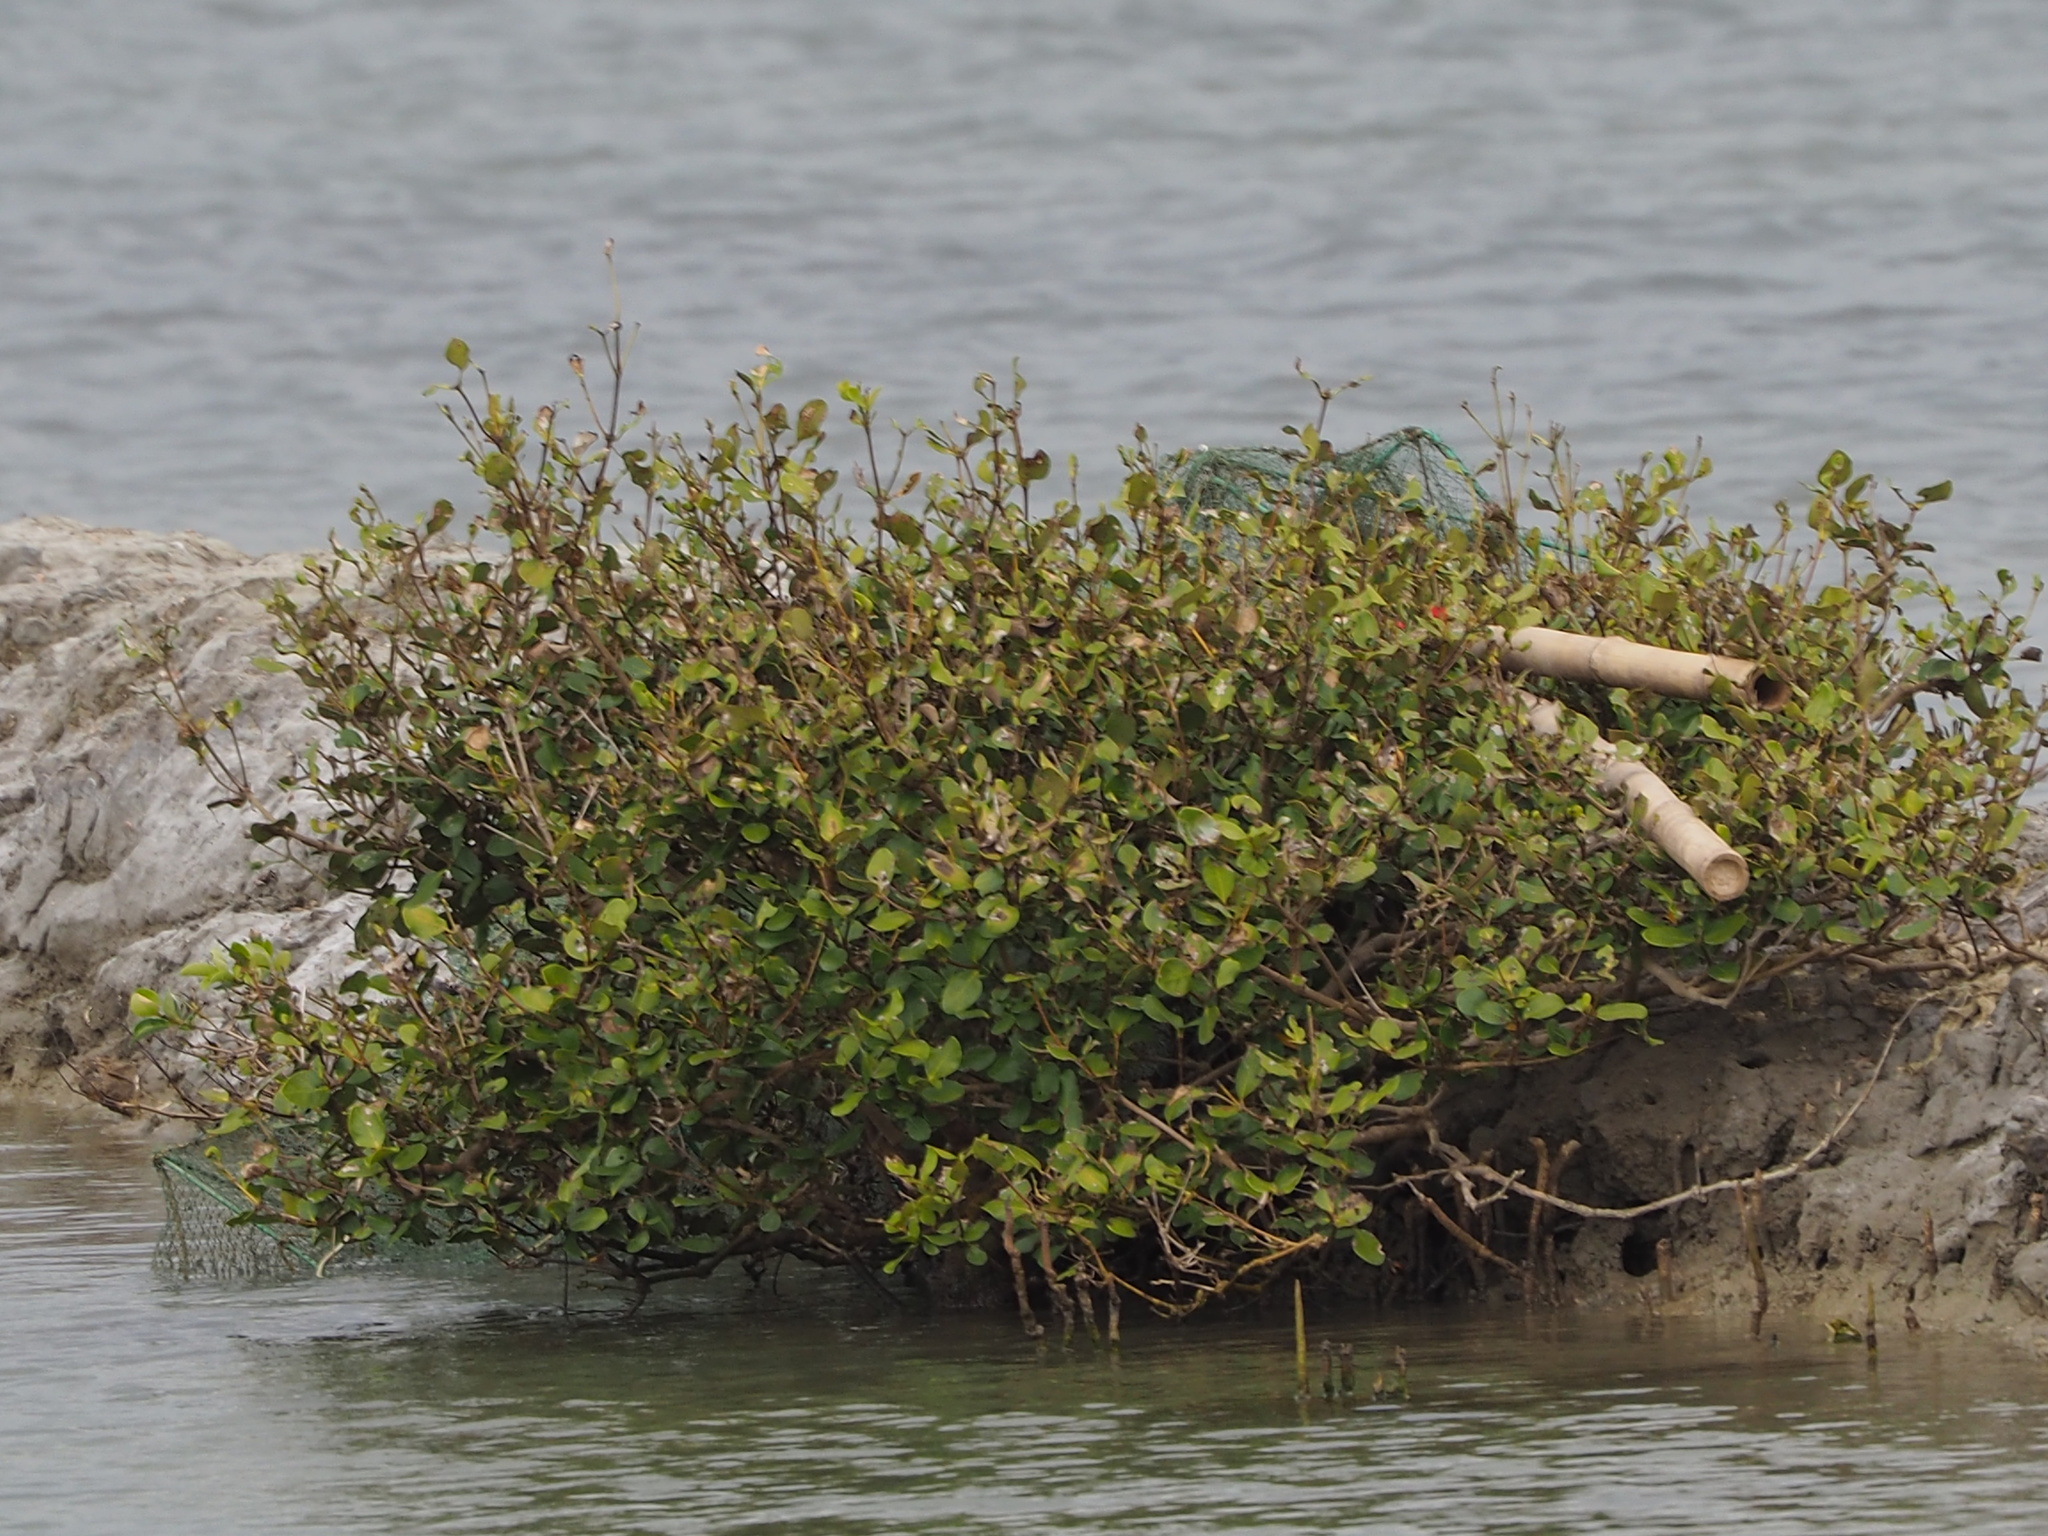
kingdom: Plantae
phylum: Tracheophyta
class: Magnoliopsida
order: Lamiales
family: Acanthaceae
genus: Avicennia
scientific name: Avicennia marina
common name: Gray mangrove
